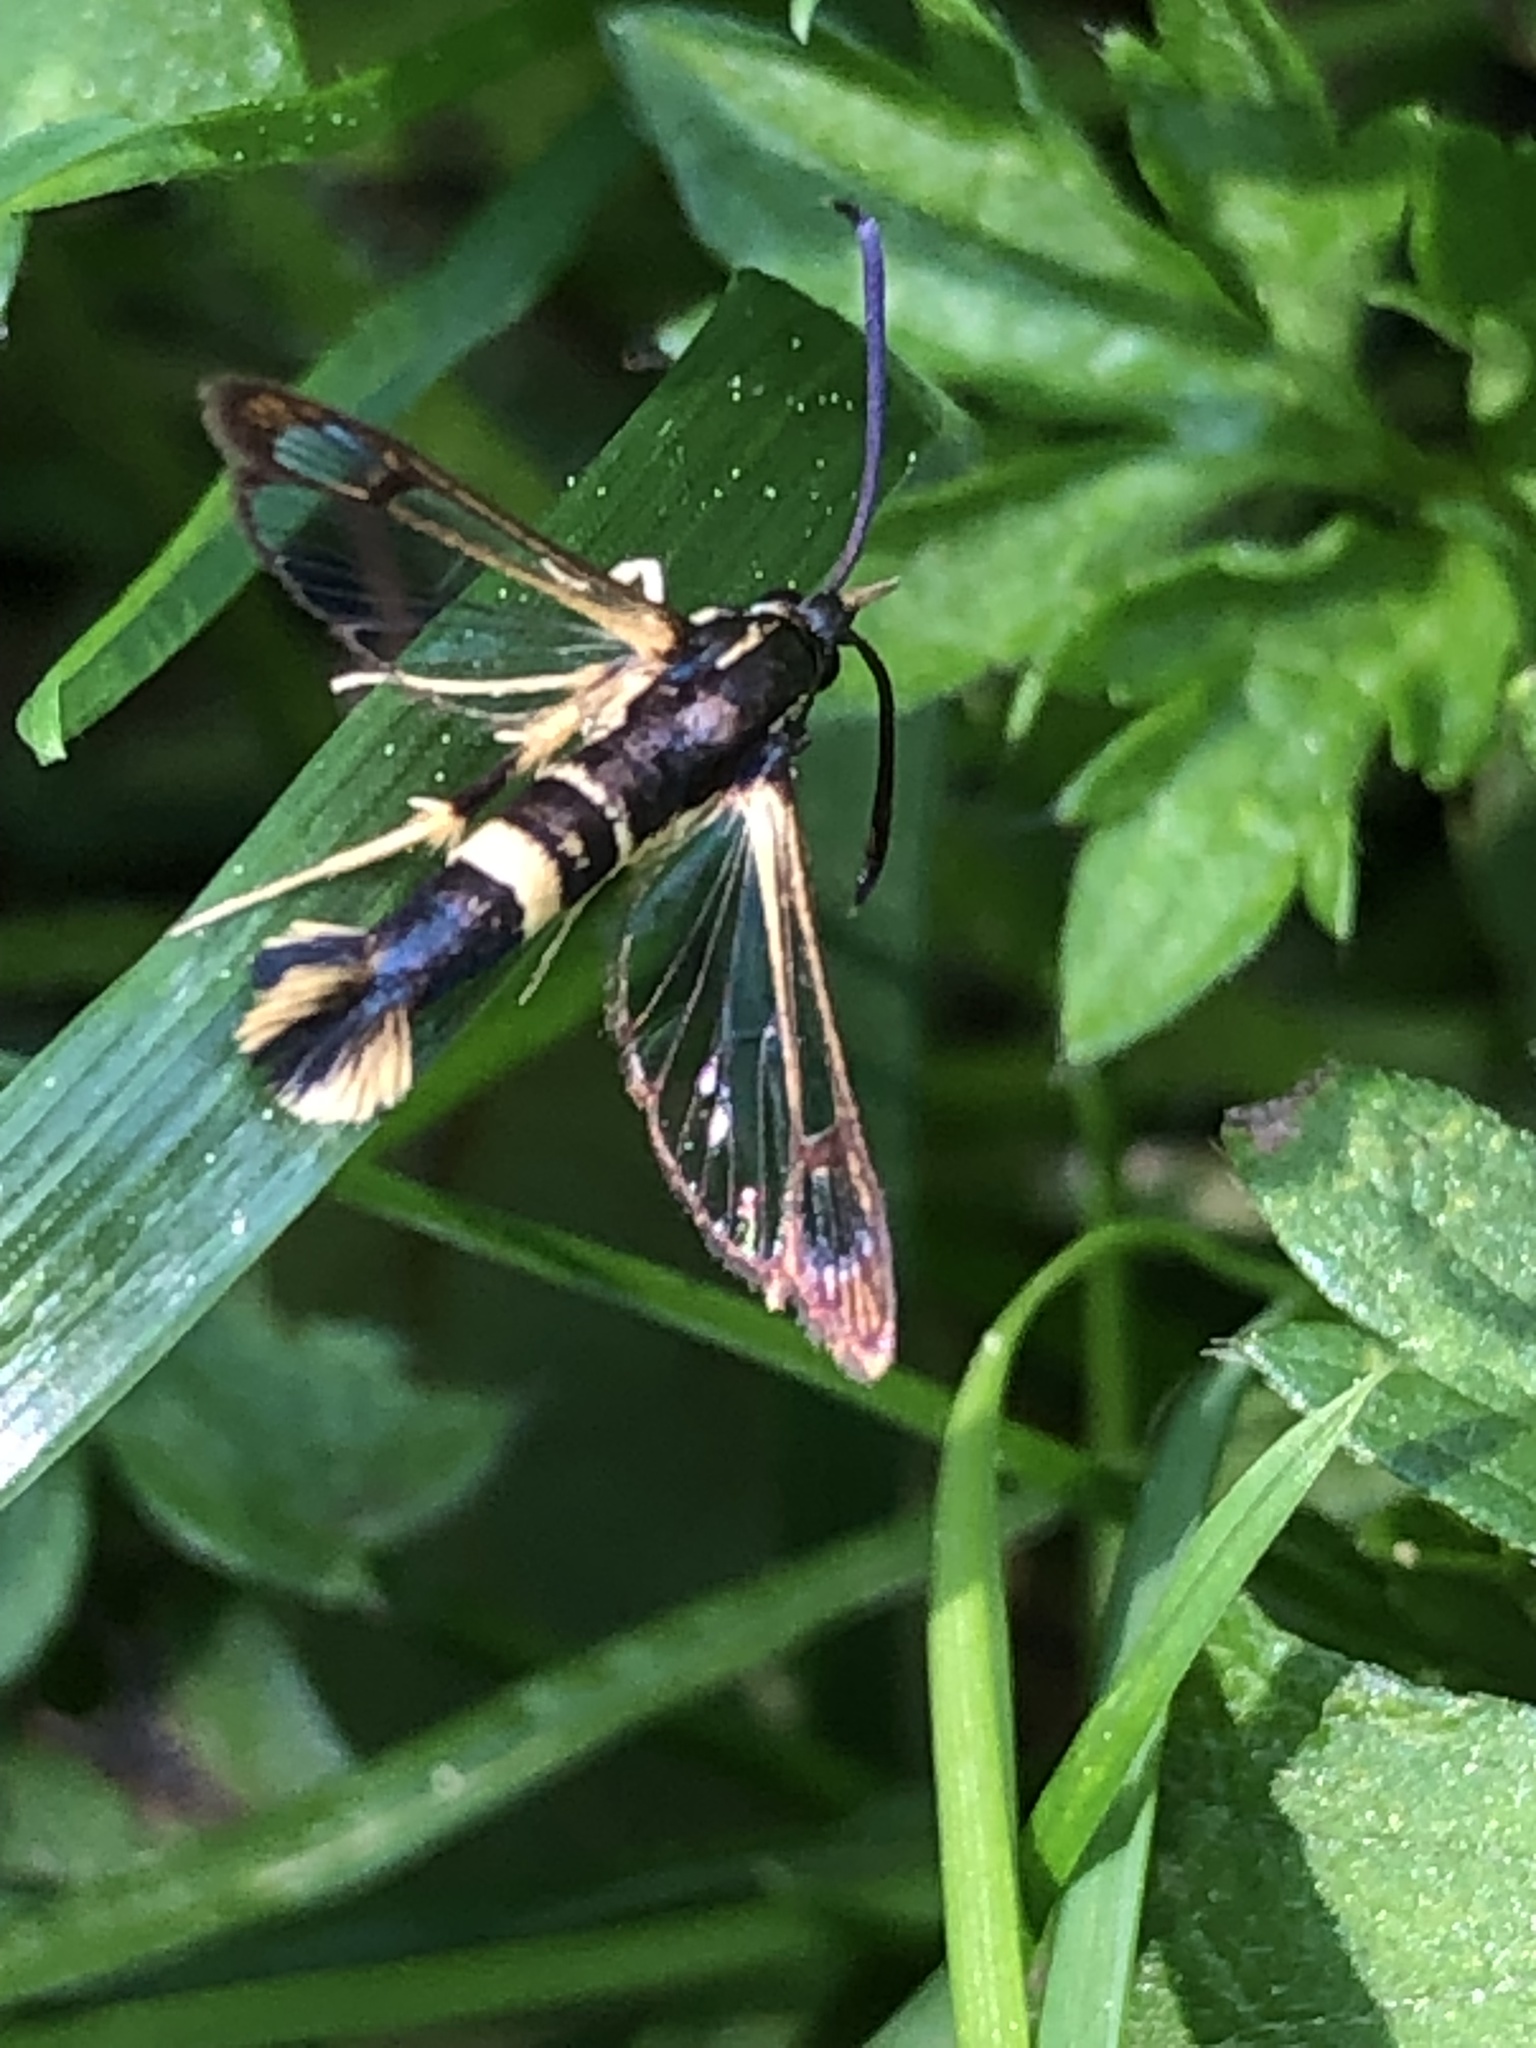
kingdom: Animalia
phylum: Arthropoda
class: Insecta
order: Lepidoptera
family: Sesiidae
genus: Synanthedon
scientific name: Synanthedon scitula
